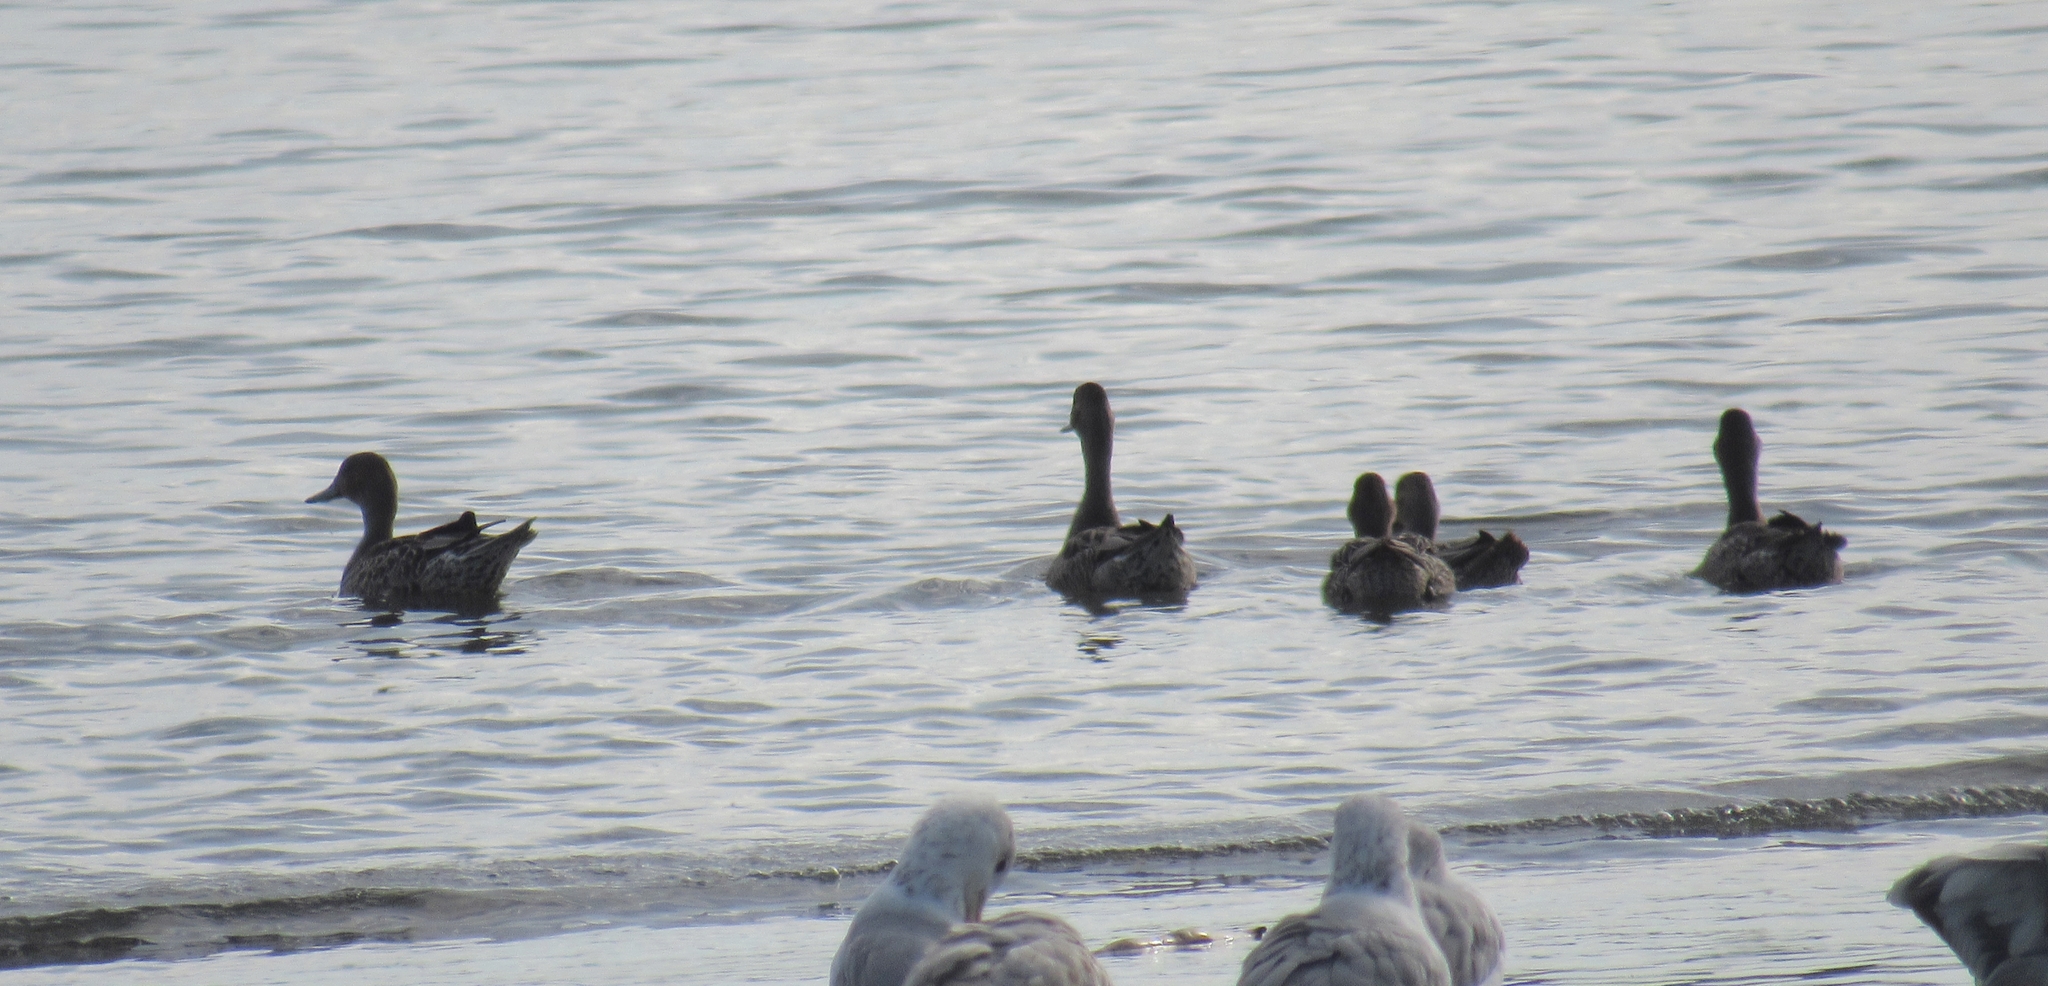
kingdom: Animalia
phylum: Chordata
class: Aves
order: Anseriformes
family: Anatidae
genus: Anas
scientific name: Anas acuta
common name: Northern pintail
